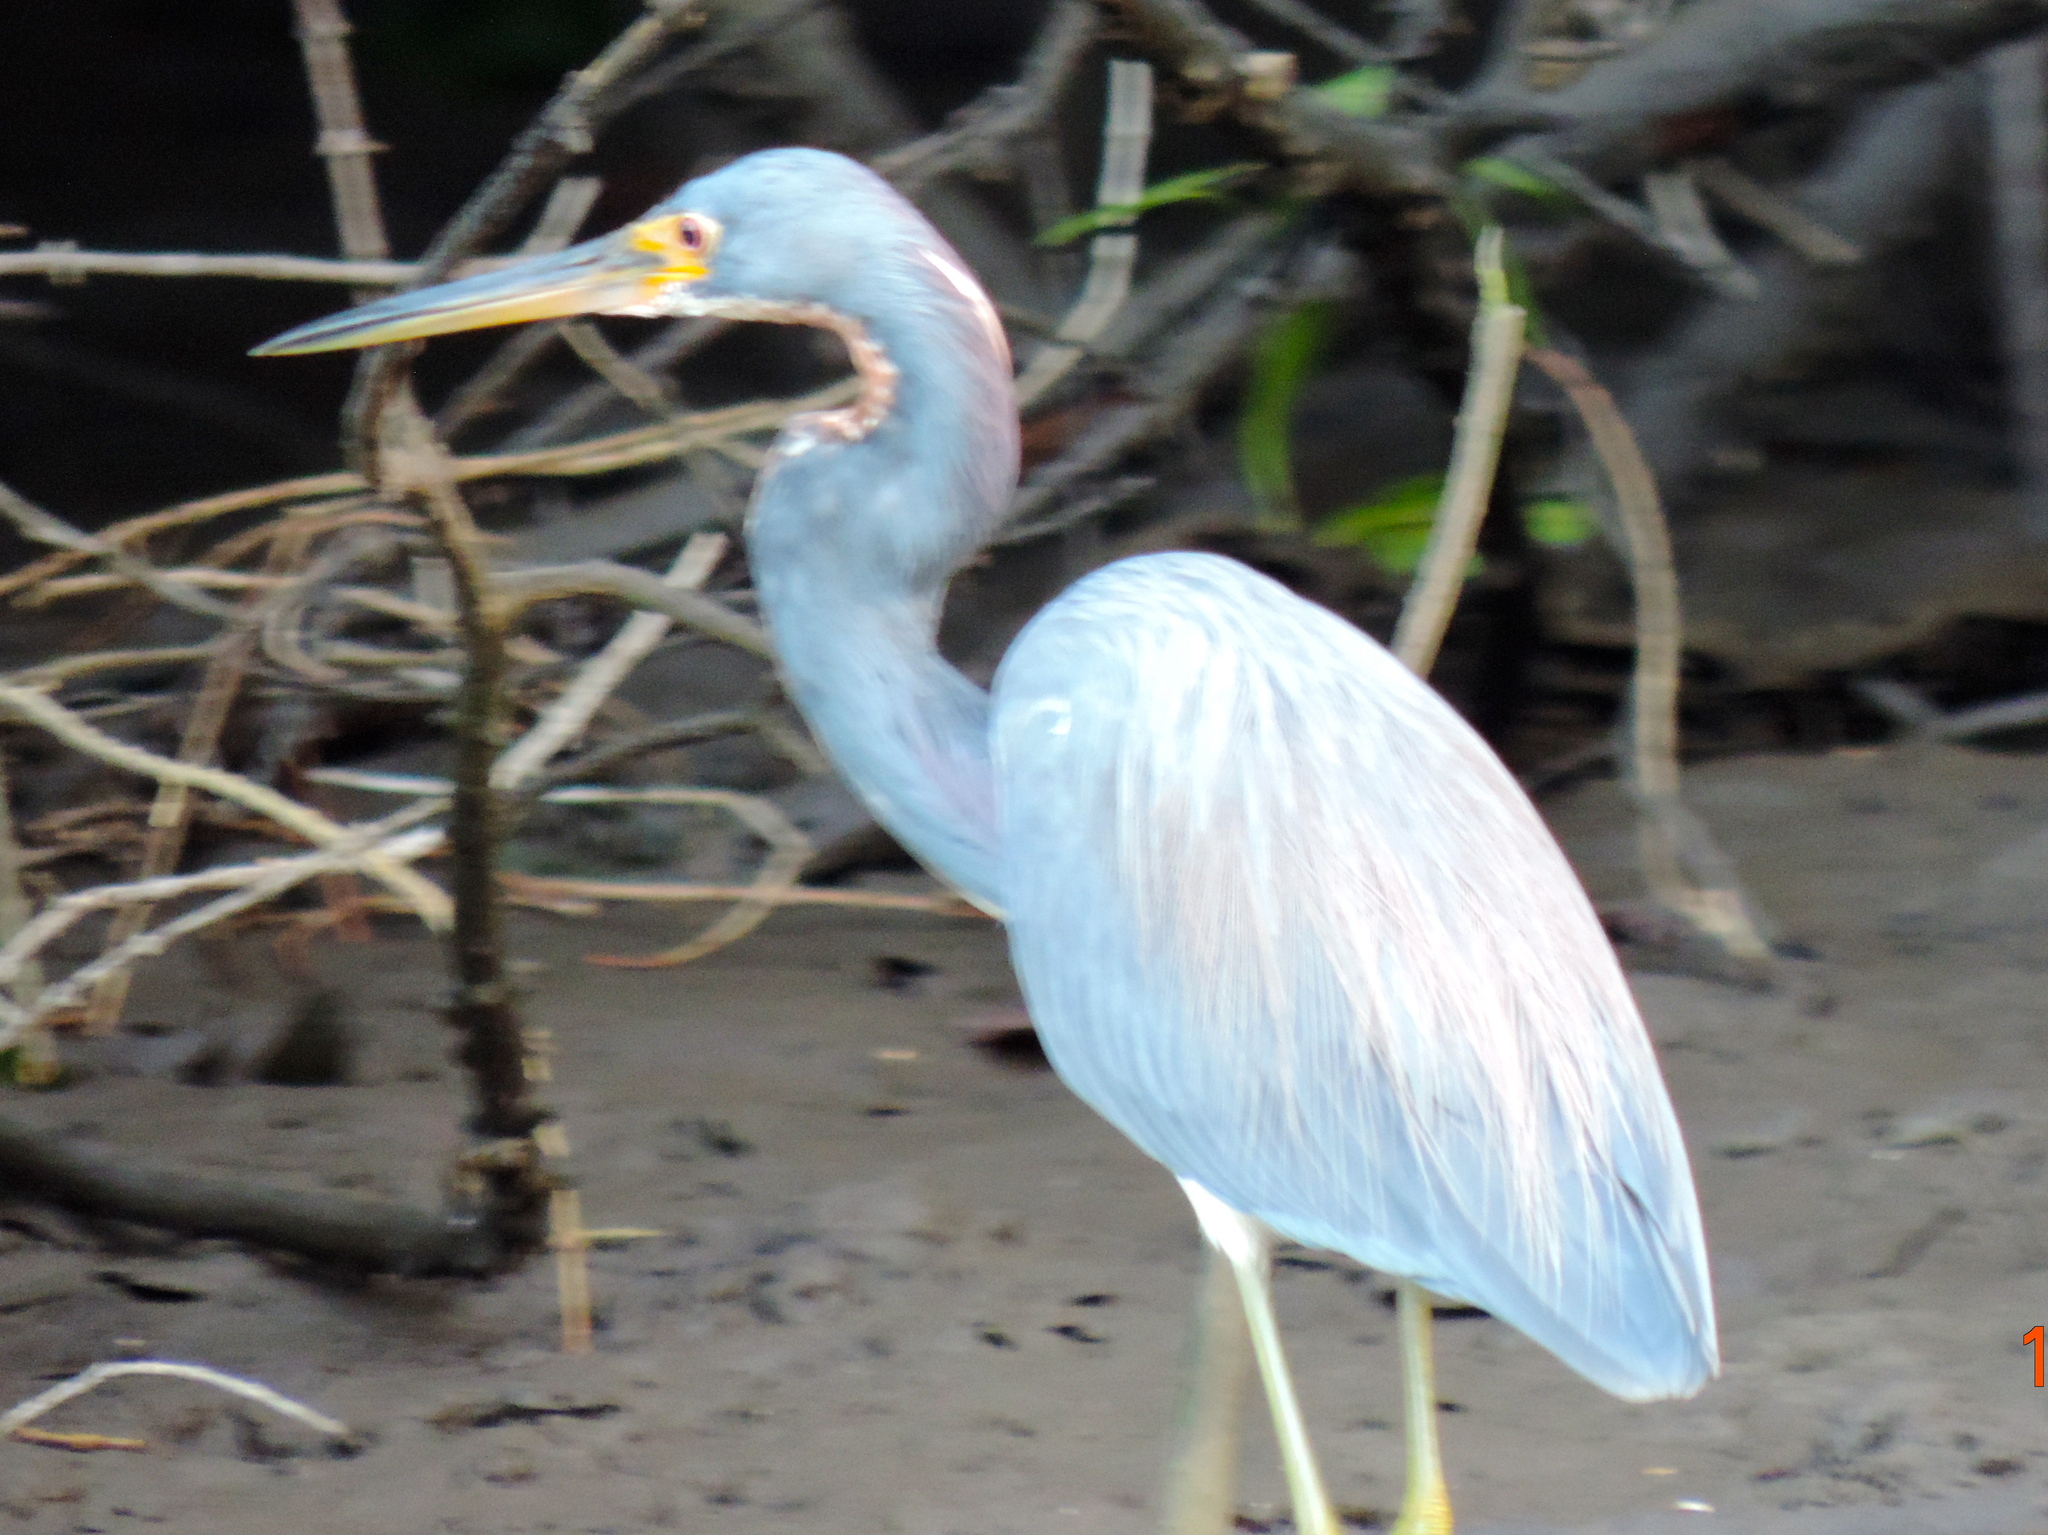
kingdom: Animalia
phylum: Chordata
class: Aves
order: Pelecaniformes
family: Ardeidae
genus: Egretta
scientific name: Egretta tricolor
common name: Tricolored heron
